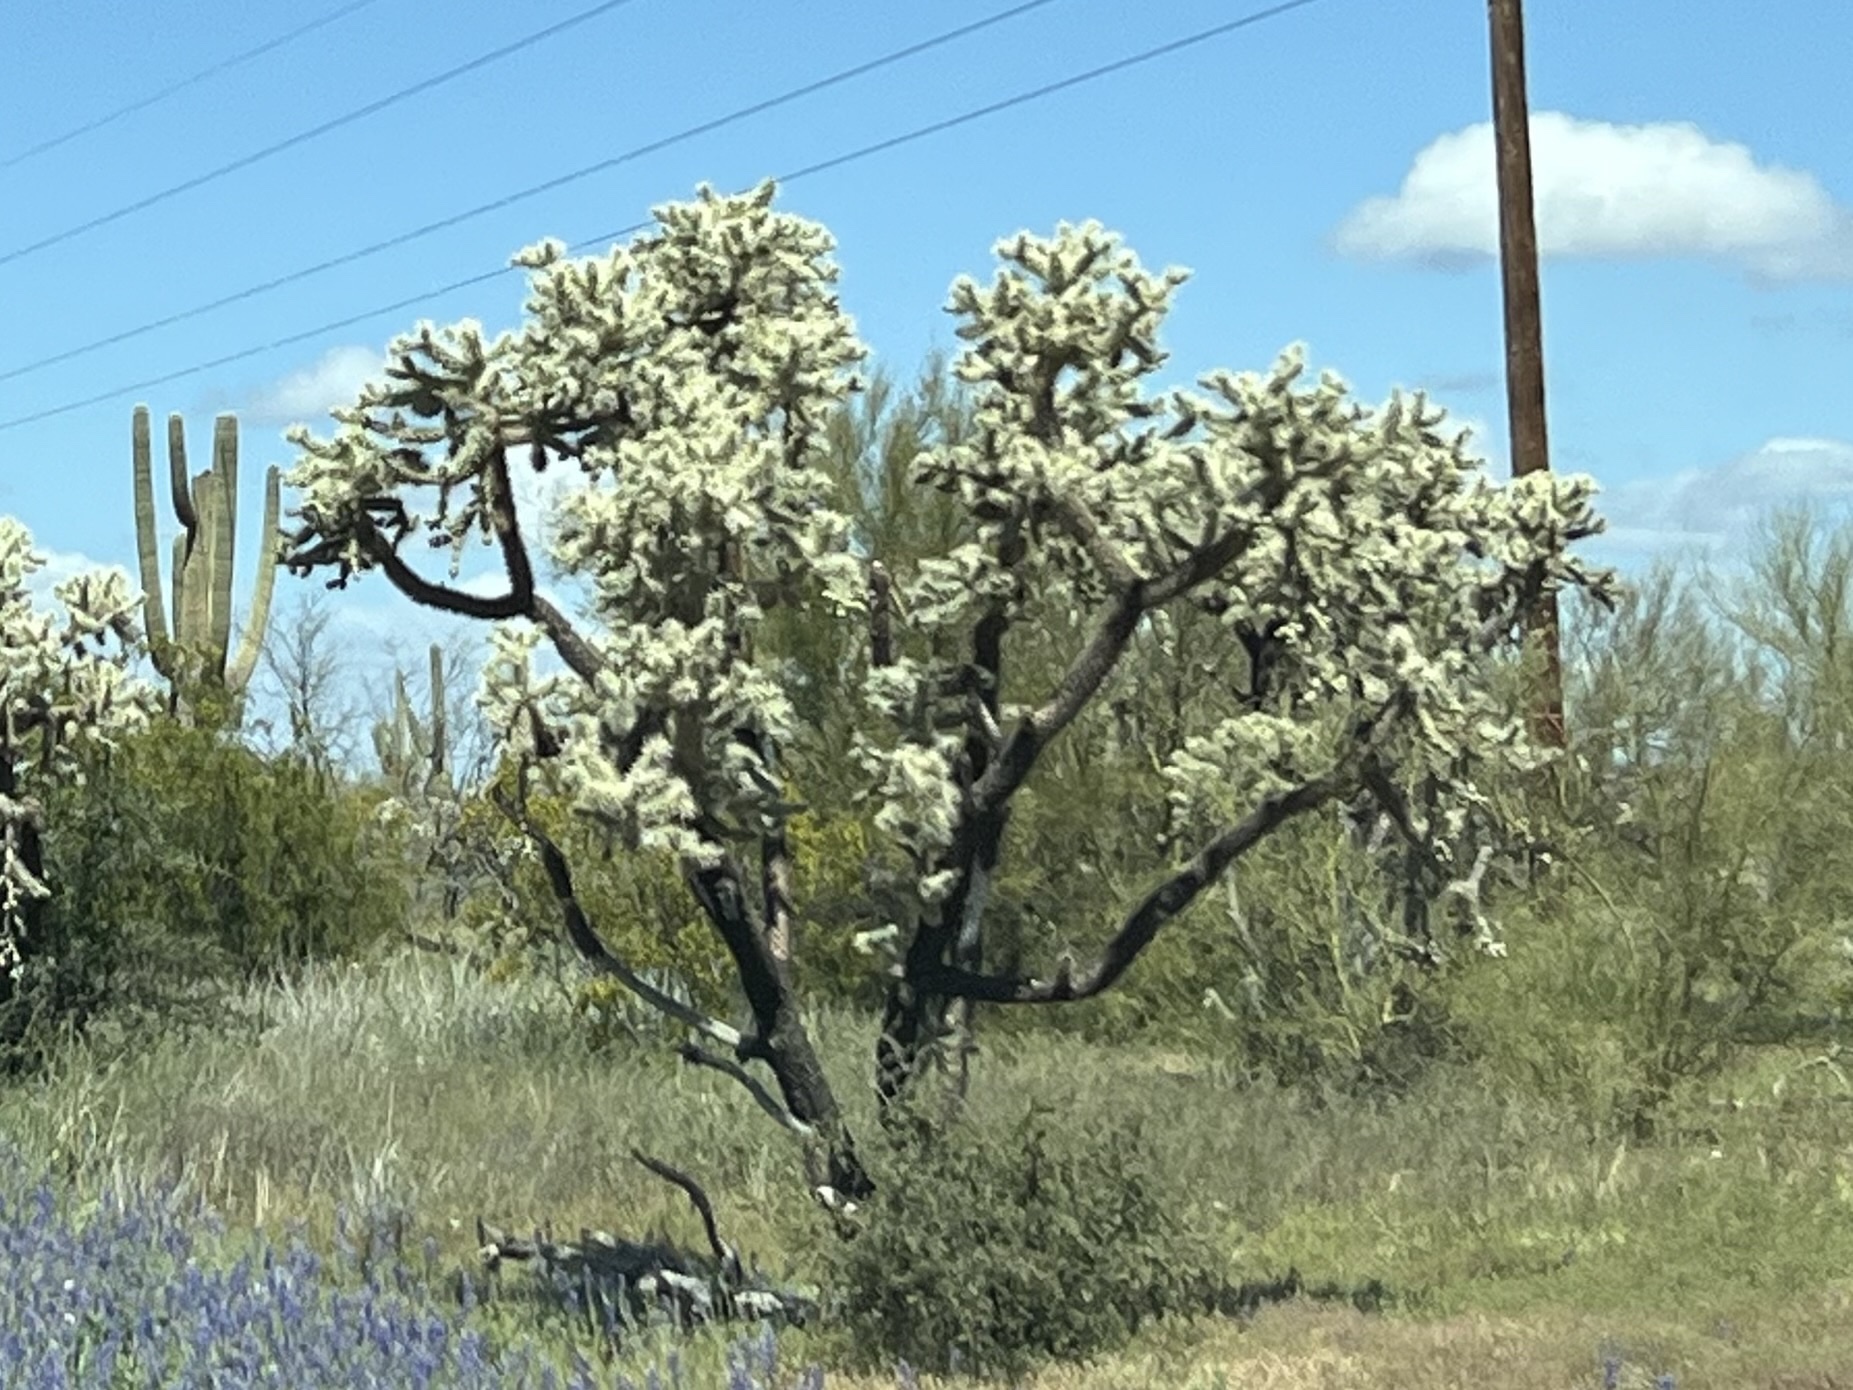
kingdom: Plantae
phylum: Tracheophyta
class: Magnoliopsida
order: Caryophyllales
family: Cactaceae
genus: Cylindropuntia
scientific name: Cylindropuntia fulgida
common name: Jumping cholla
